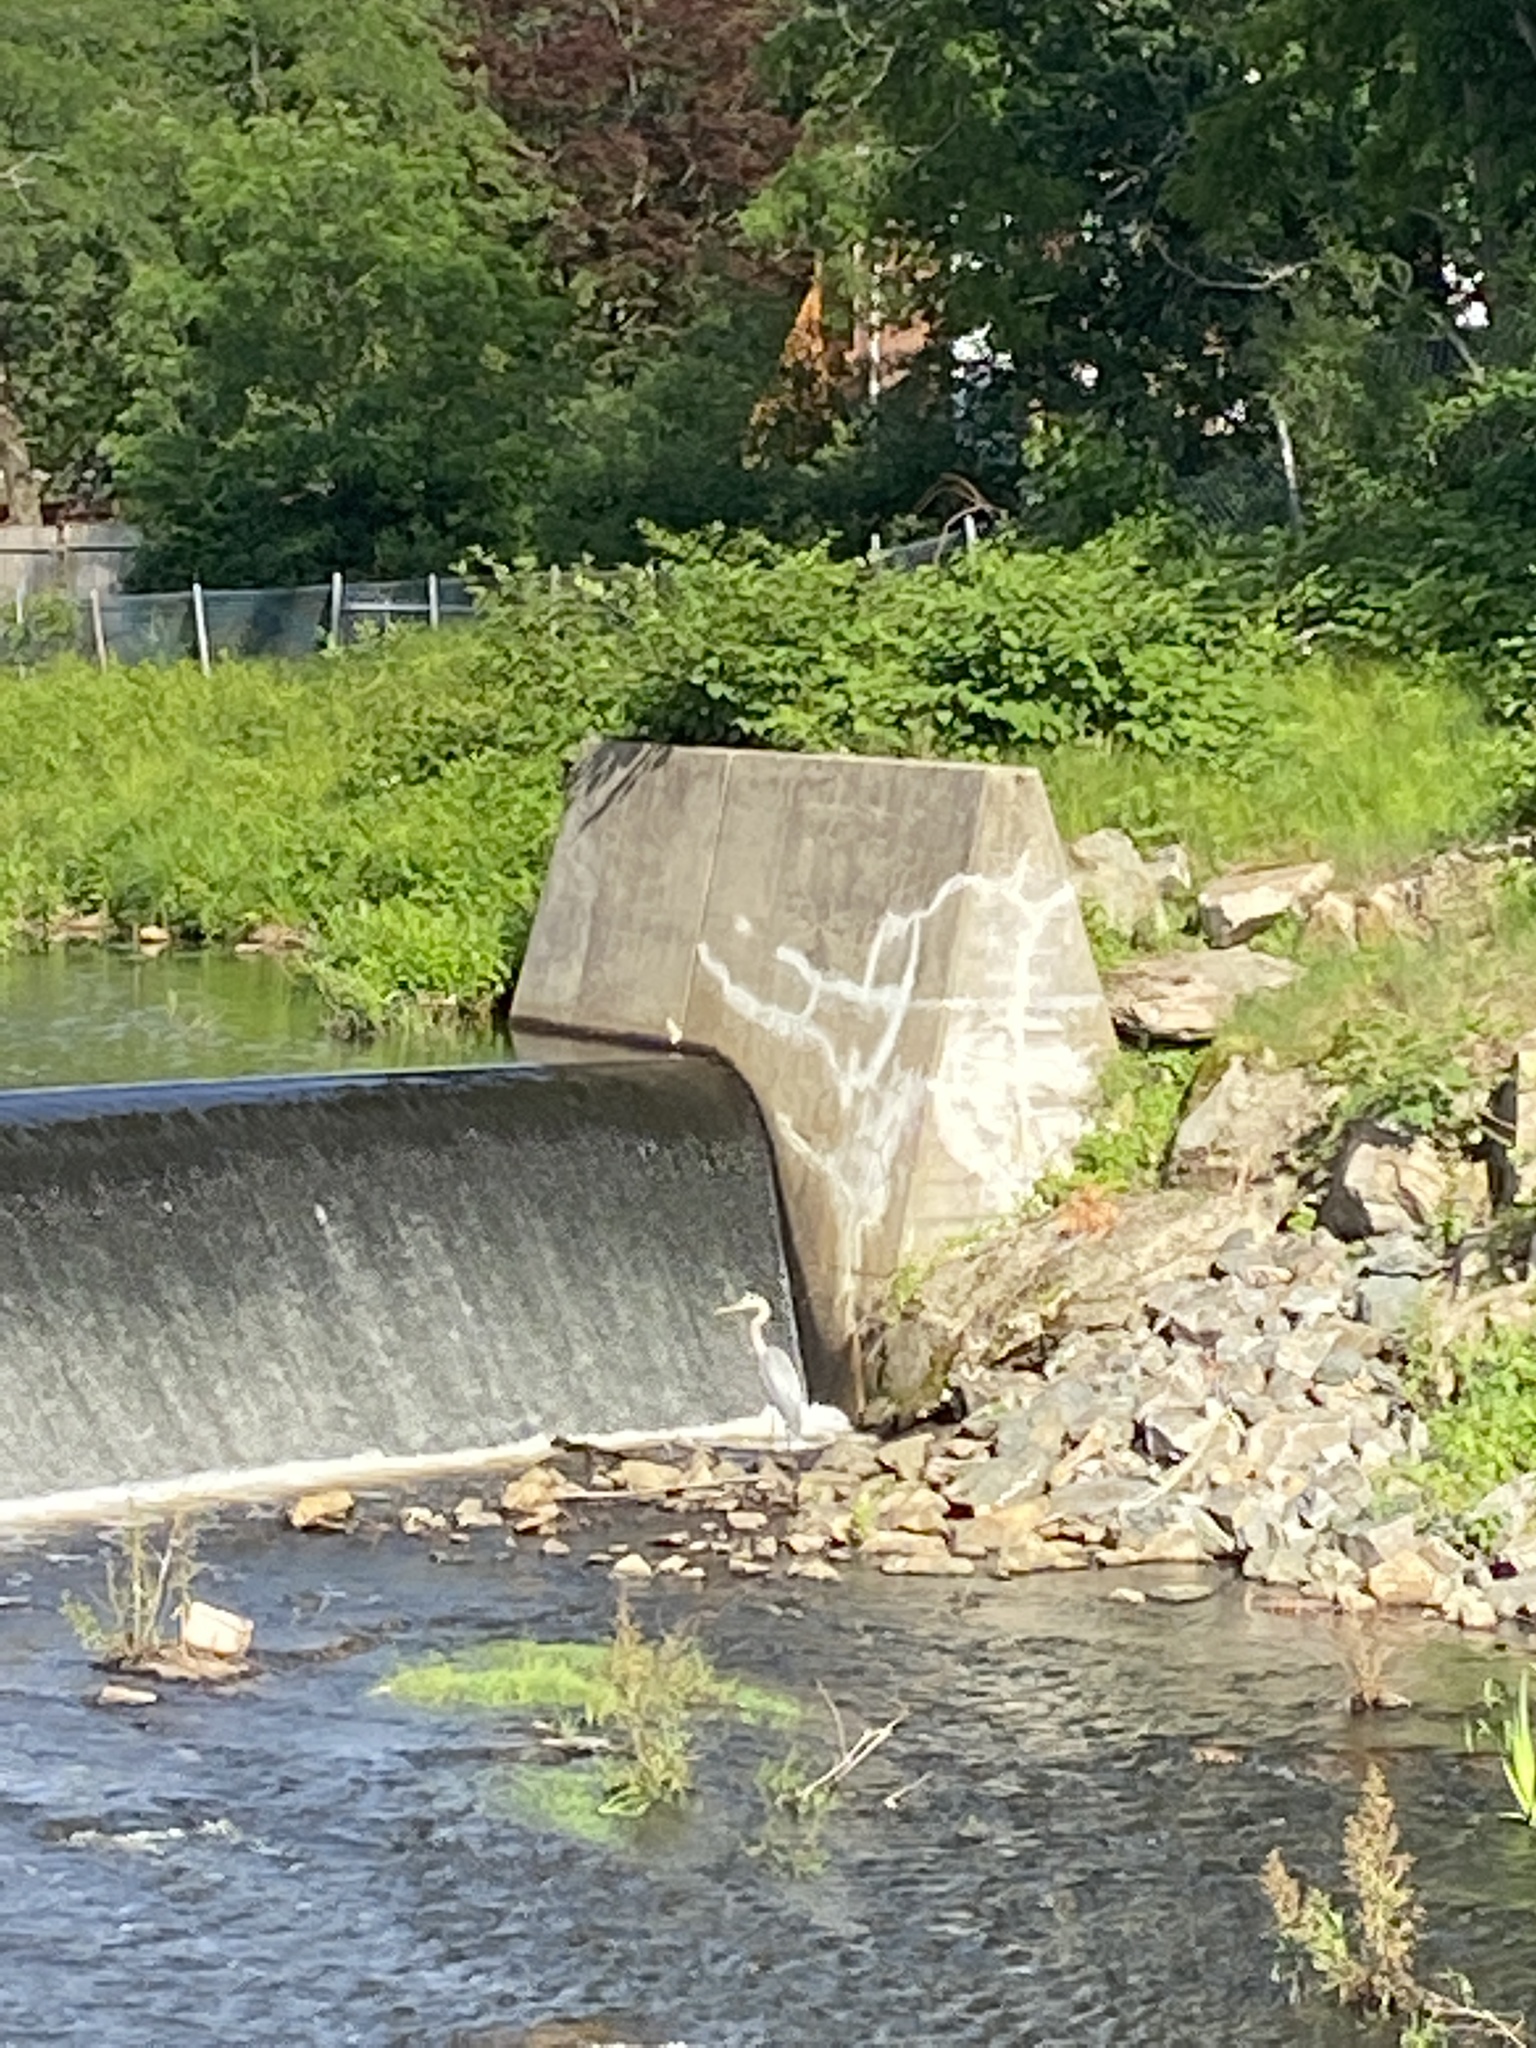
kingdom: Animalia
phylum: Chordata
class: Aves
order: Pelecaniformes
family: Ardeidae
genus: Ardea
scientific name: Ardea herodias
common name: Great blue heron
